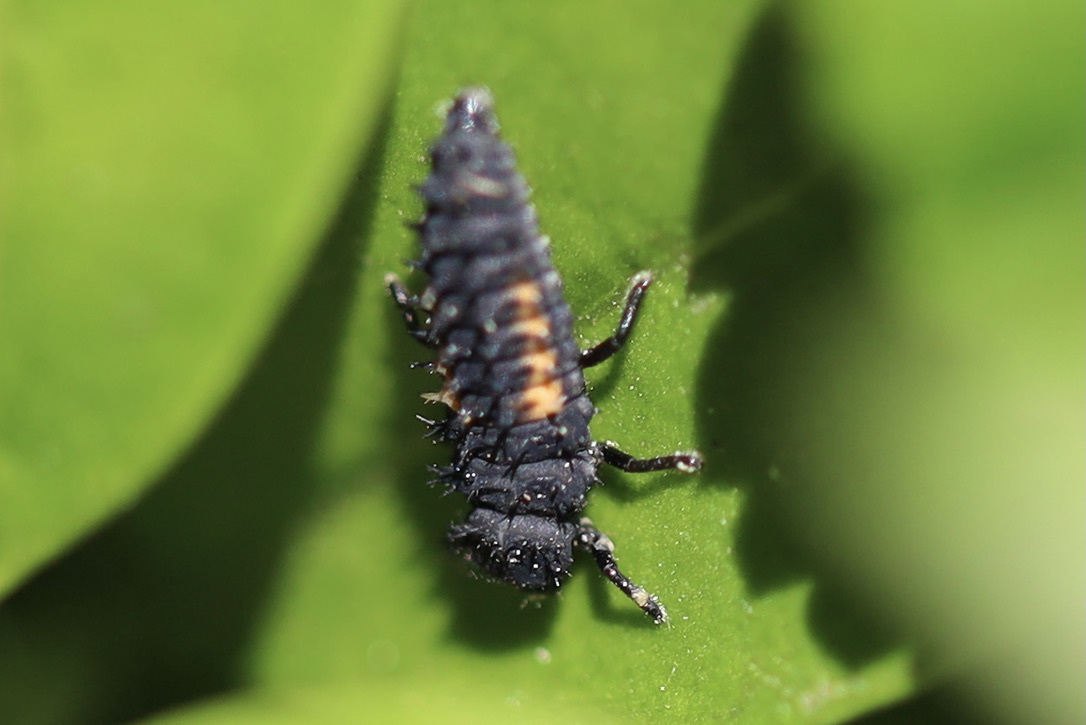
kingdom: Animalia
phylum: Arthropoda
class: Insecta
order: Coleoptera
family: Coccinellidae
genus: Harmonia
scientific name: Harmonia axyridis
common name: Harlequin ladybird
